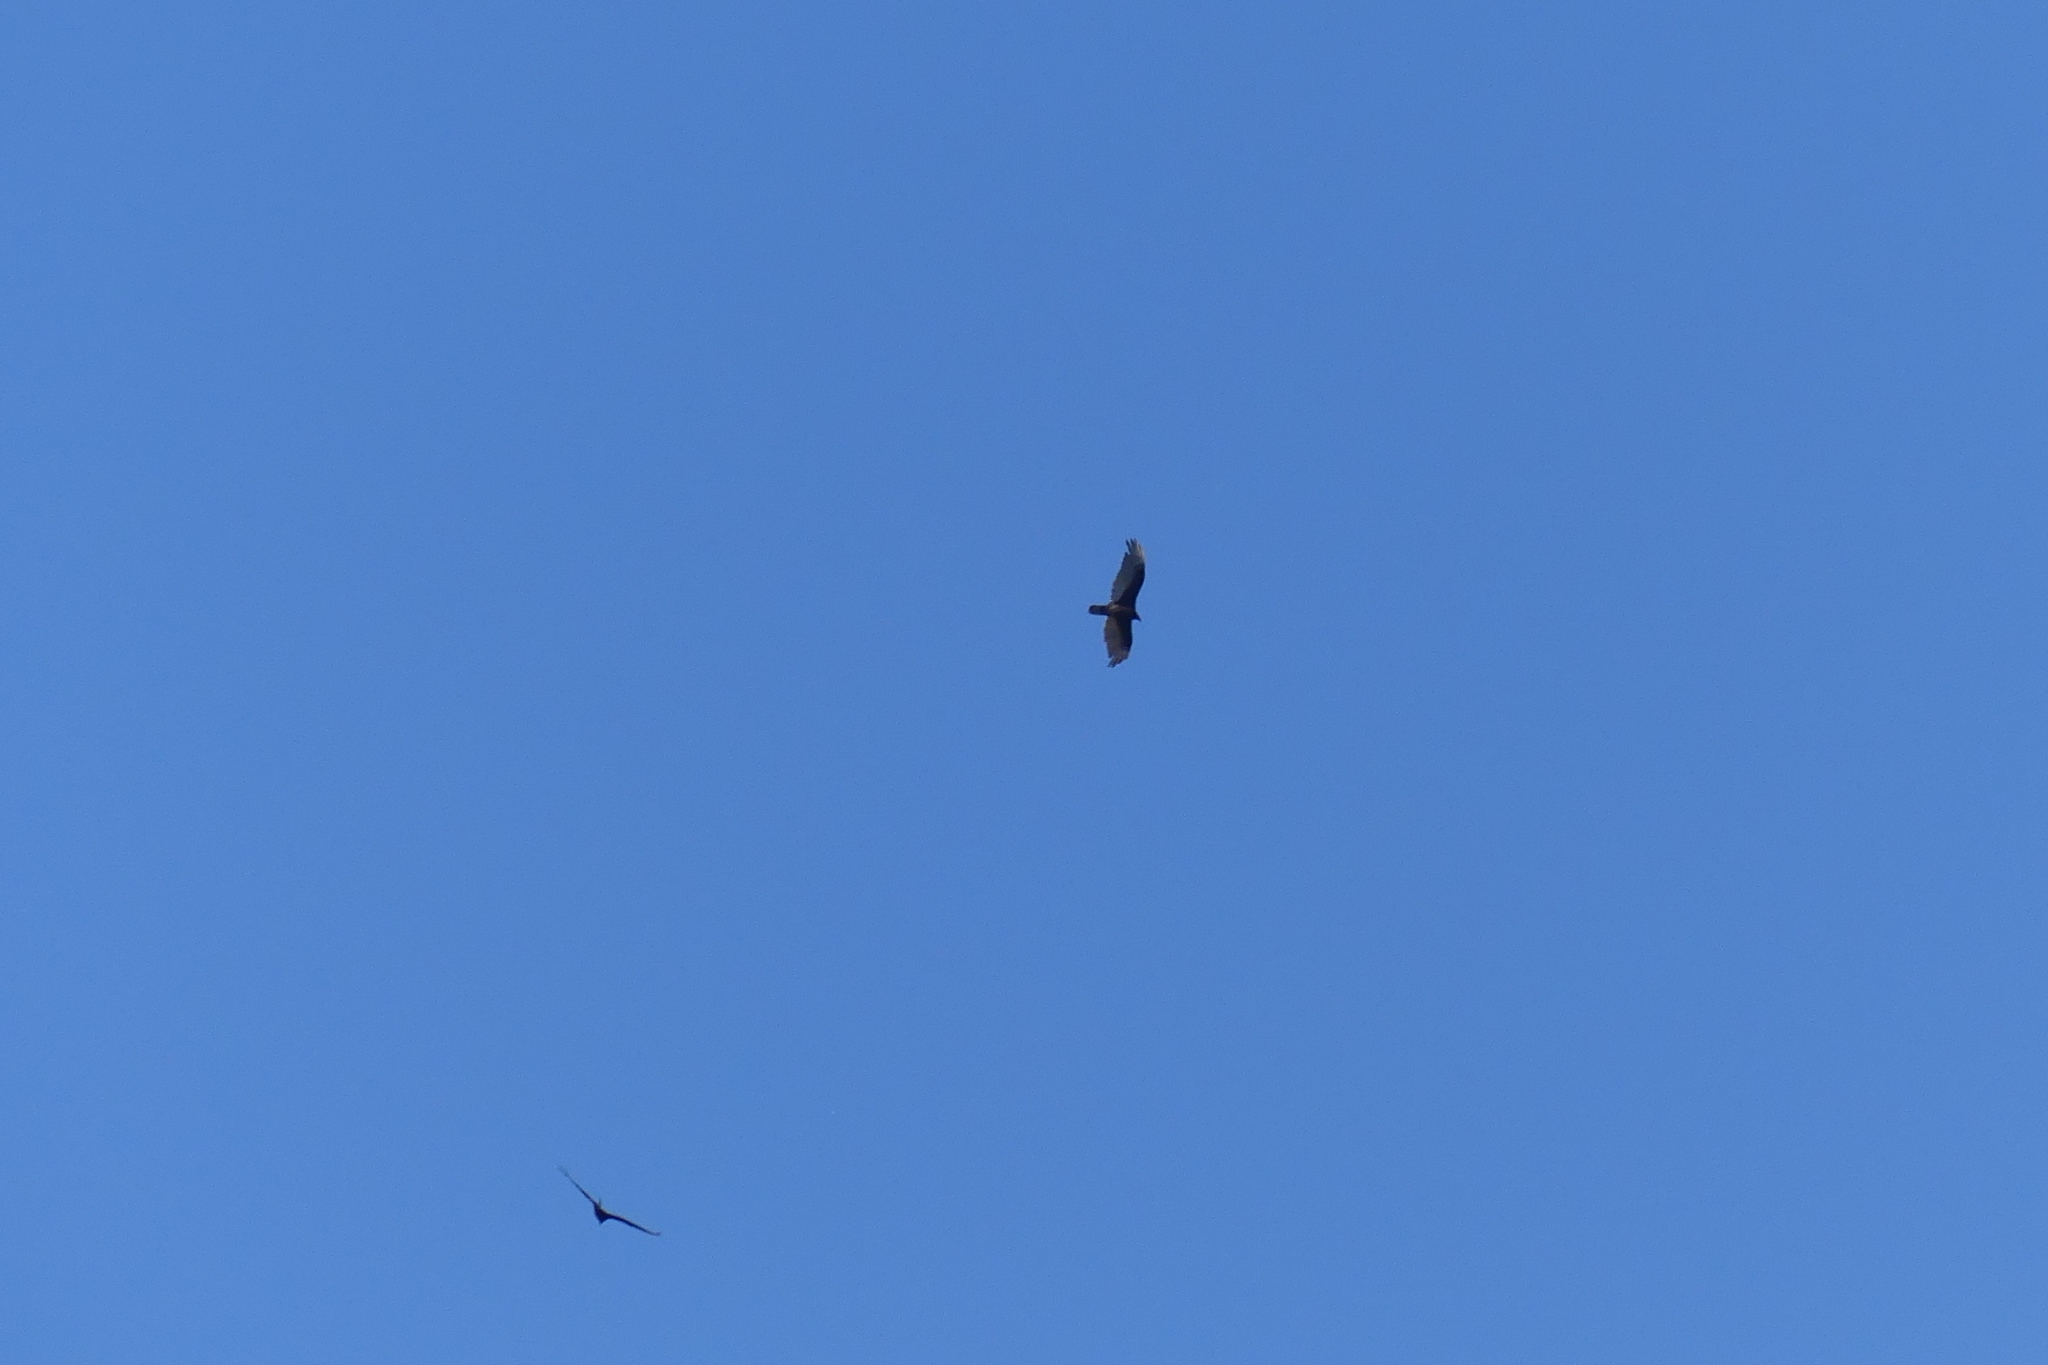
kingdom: Animalia
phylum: Chordata
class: Aves
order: Accipitriformes
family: Cathartidae
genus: Cathartes
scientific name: Cathartes aura
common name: Turkey vulture
